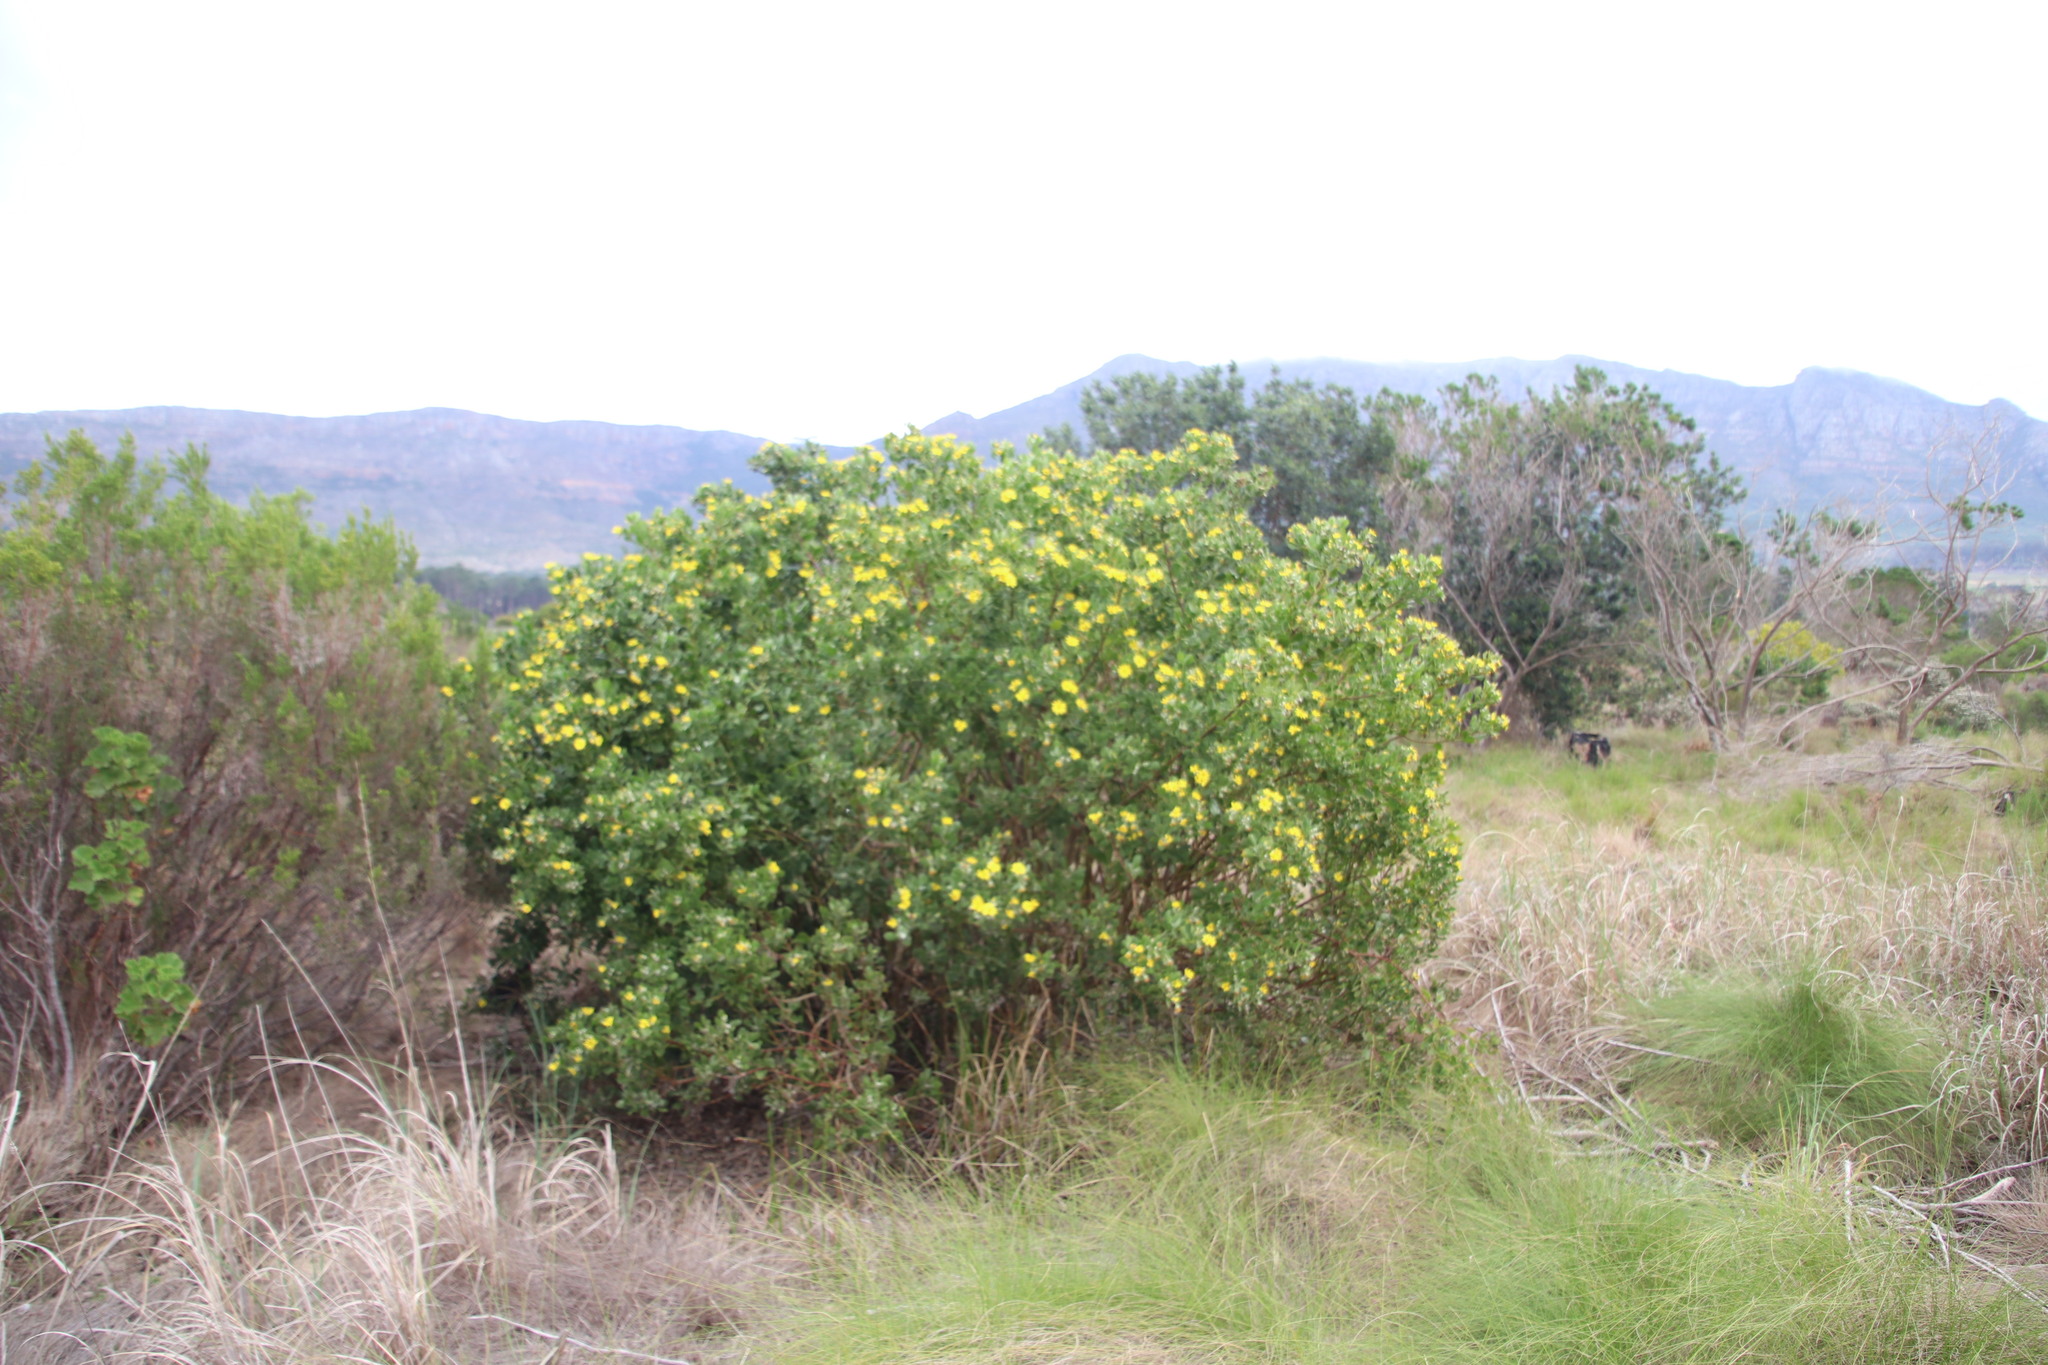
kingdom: Plantae
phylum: Tracheophyta
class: Magnoliopsida
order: Asterales
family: Asteraceae
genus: Osteospermum
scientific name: Osteospermum moniliferum
